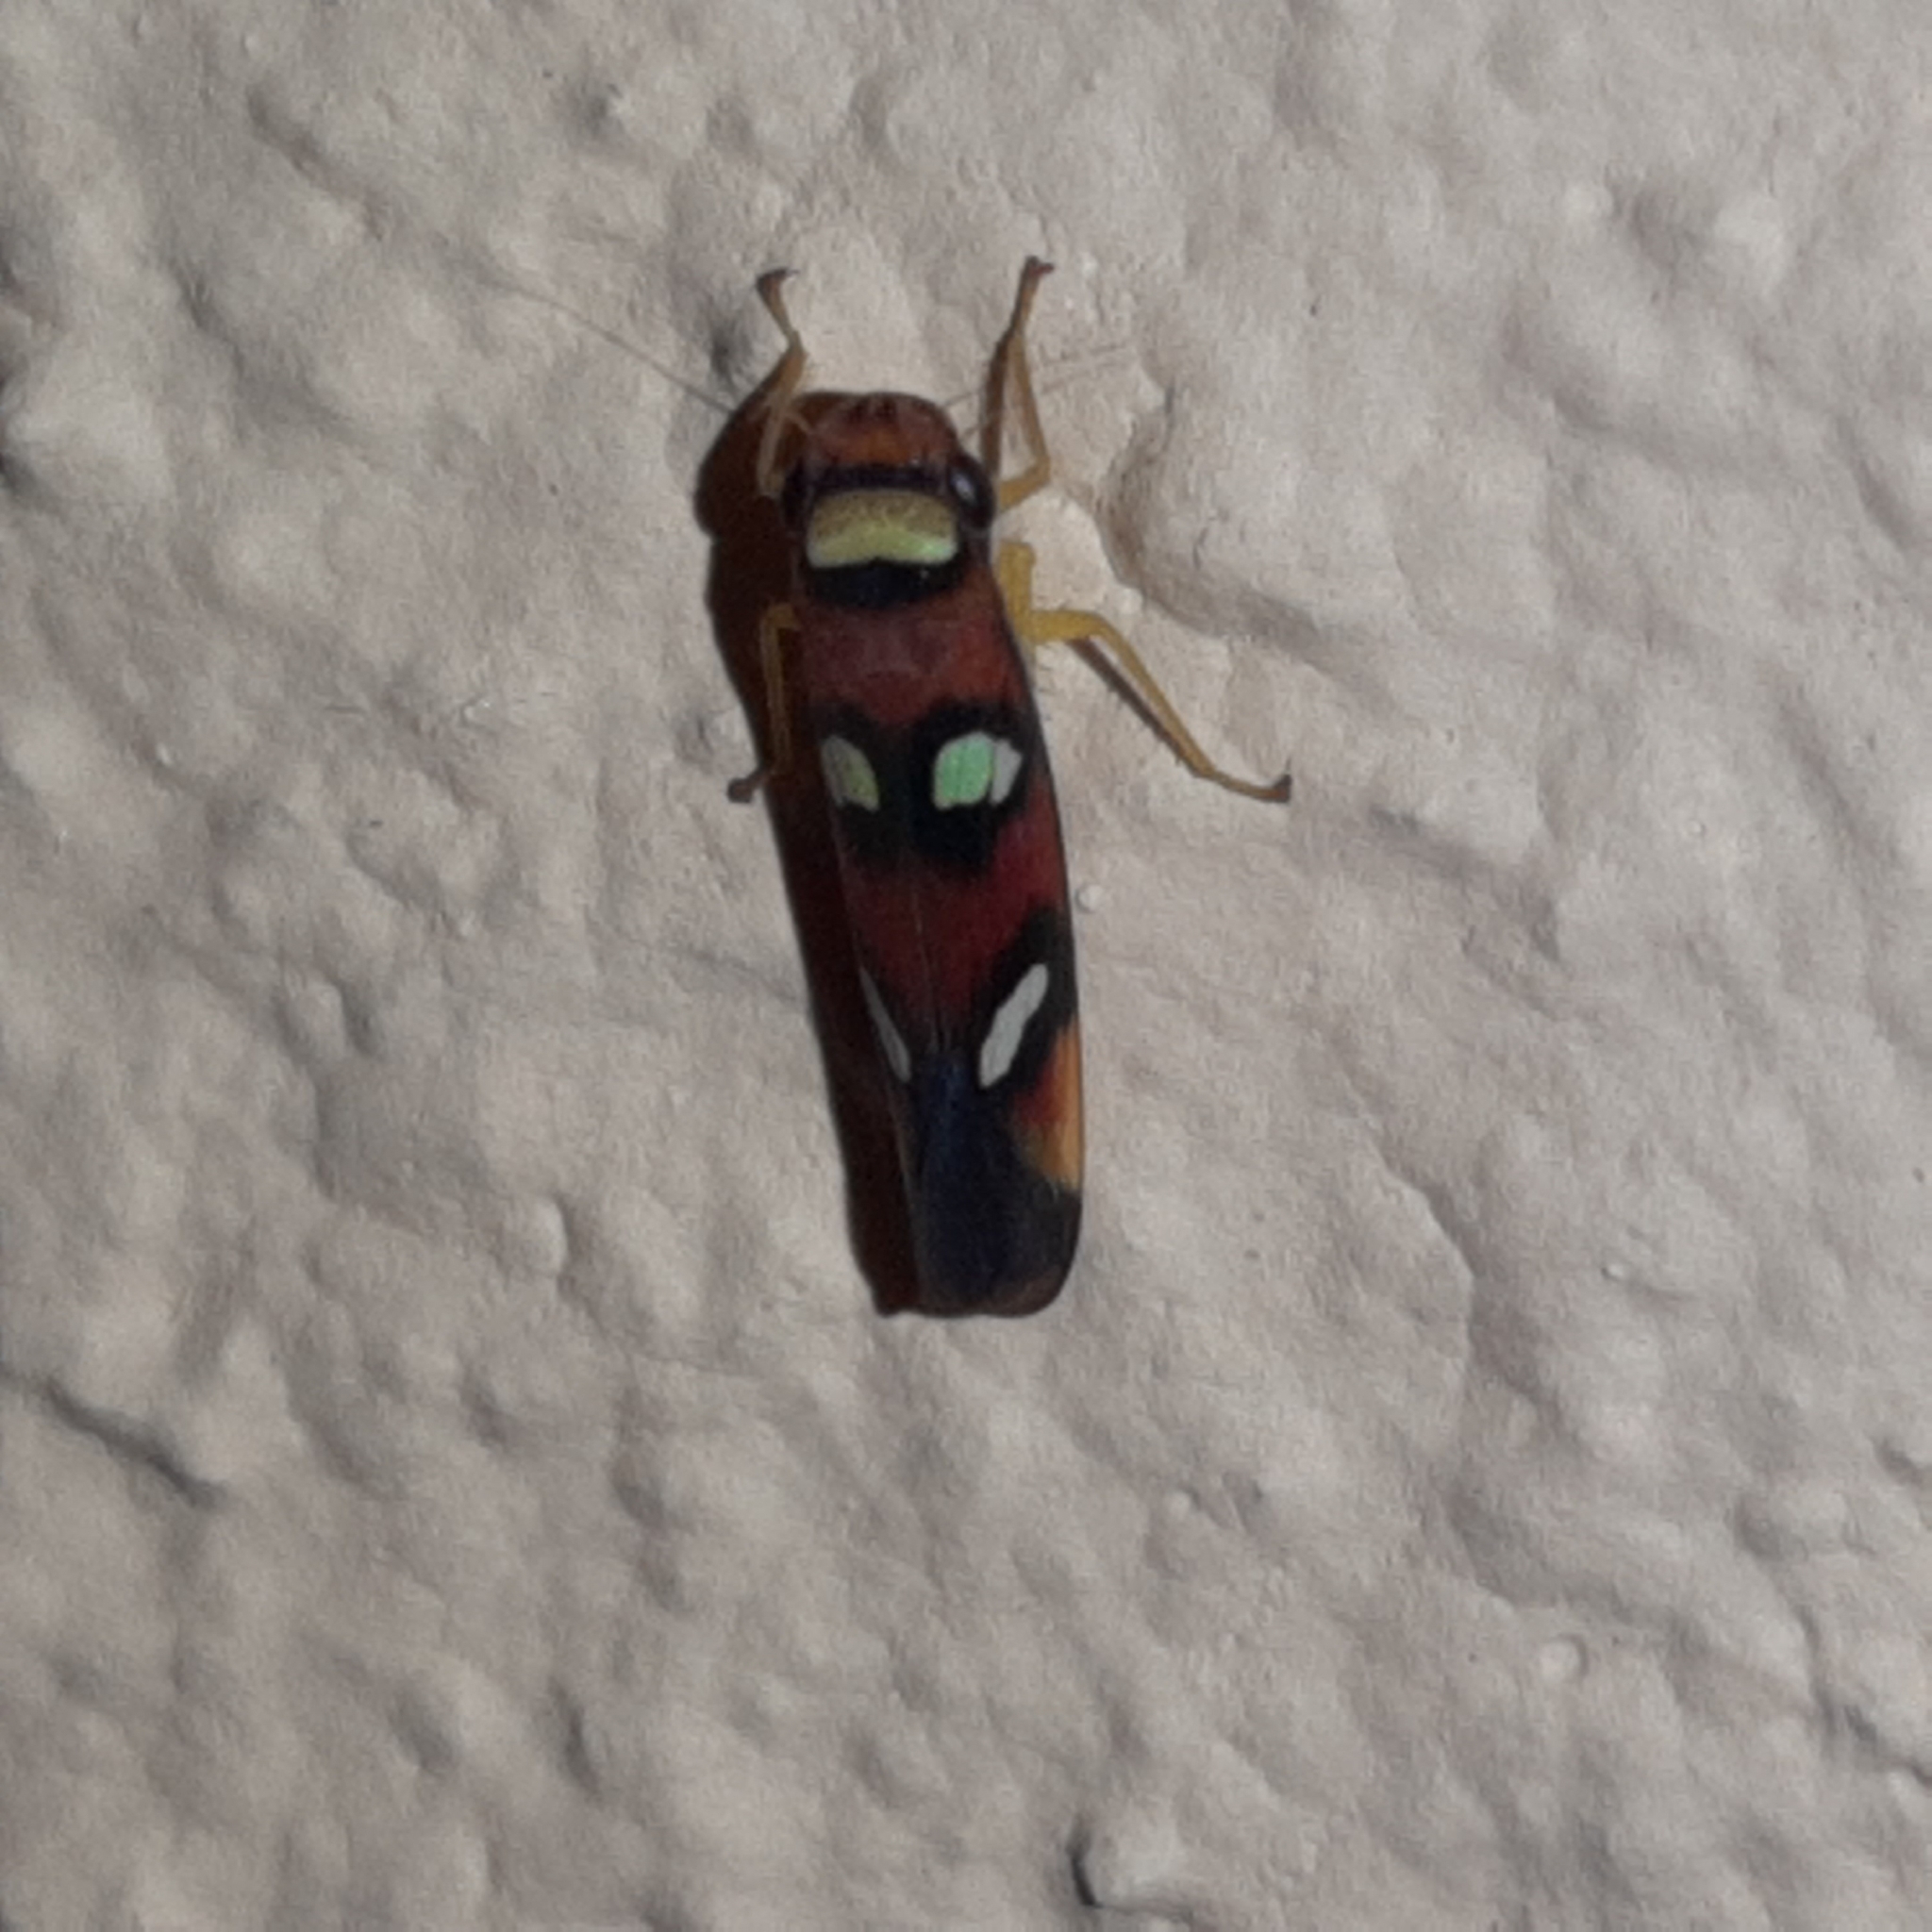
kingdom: Animalia
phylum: Arthropoda
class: Insecta
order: Hemiptera
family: Cicadellidae
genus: Erythrogonia
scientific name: Erythrogonia areolata
